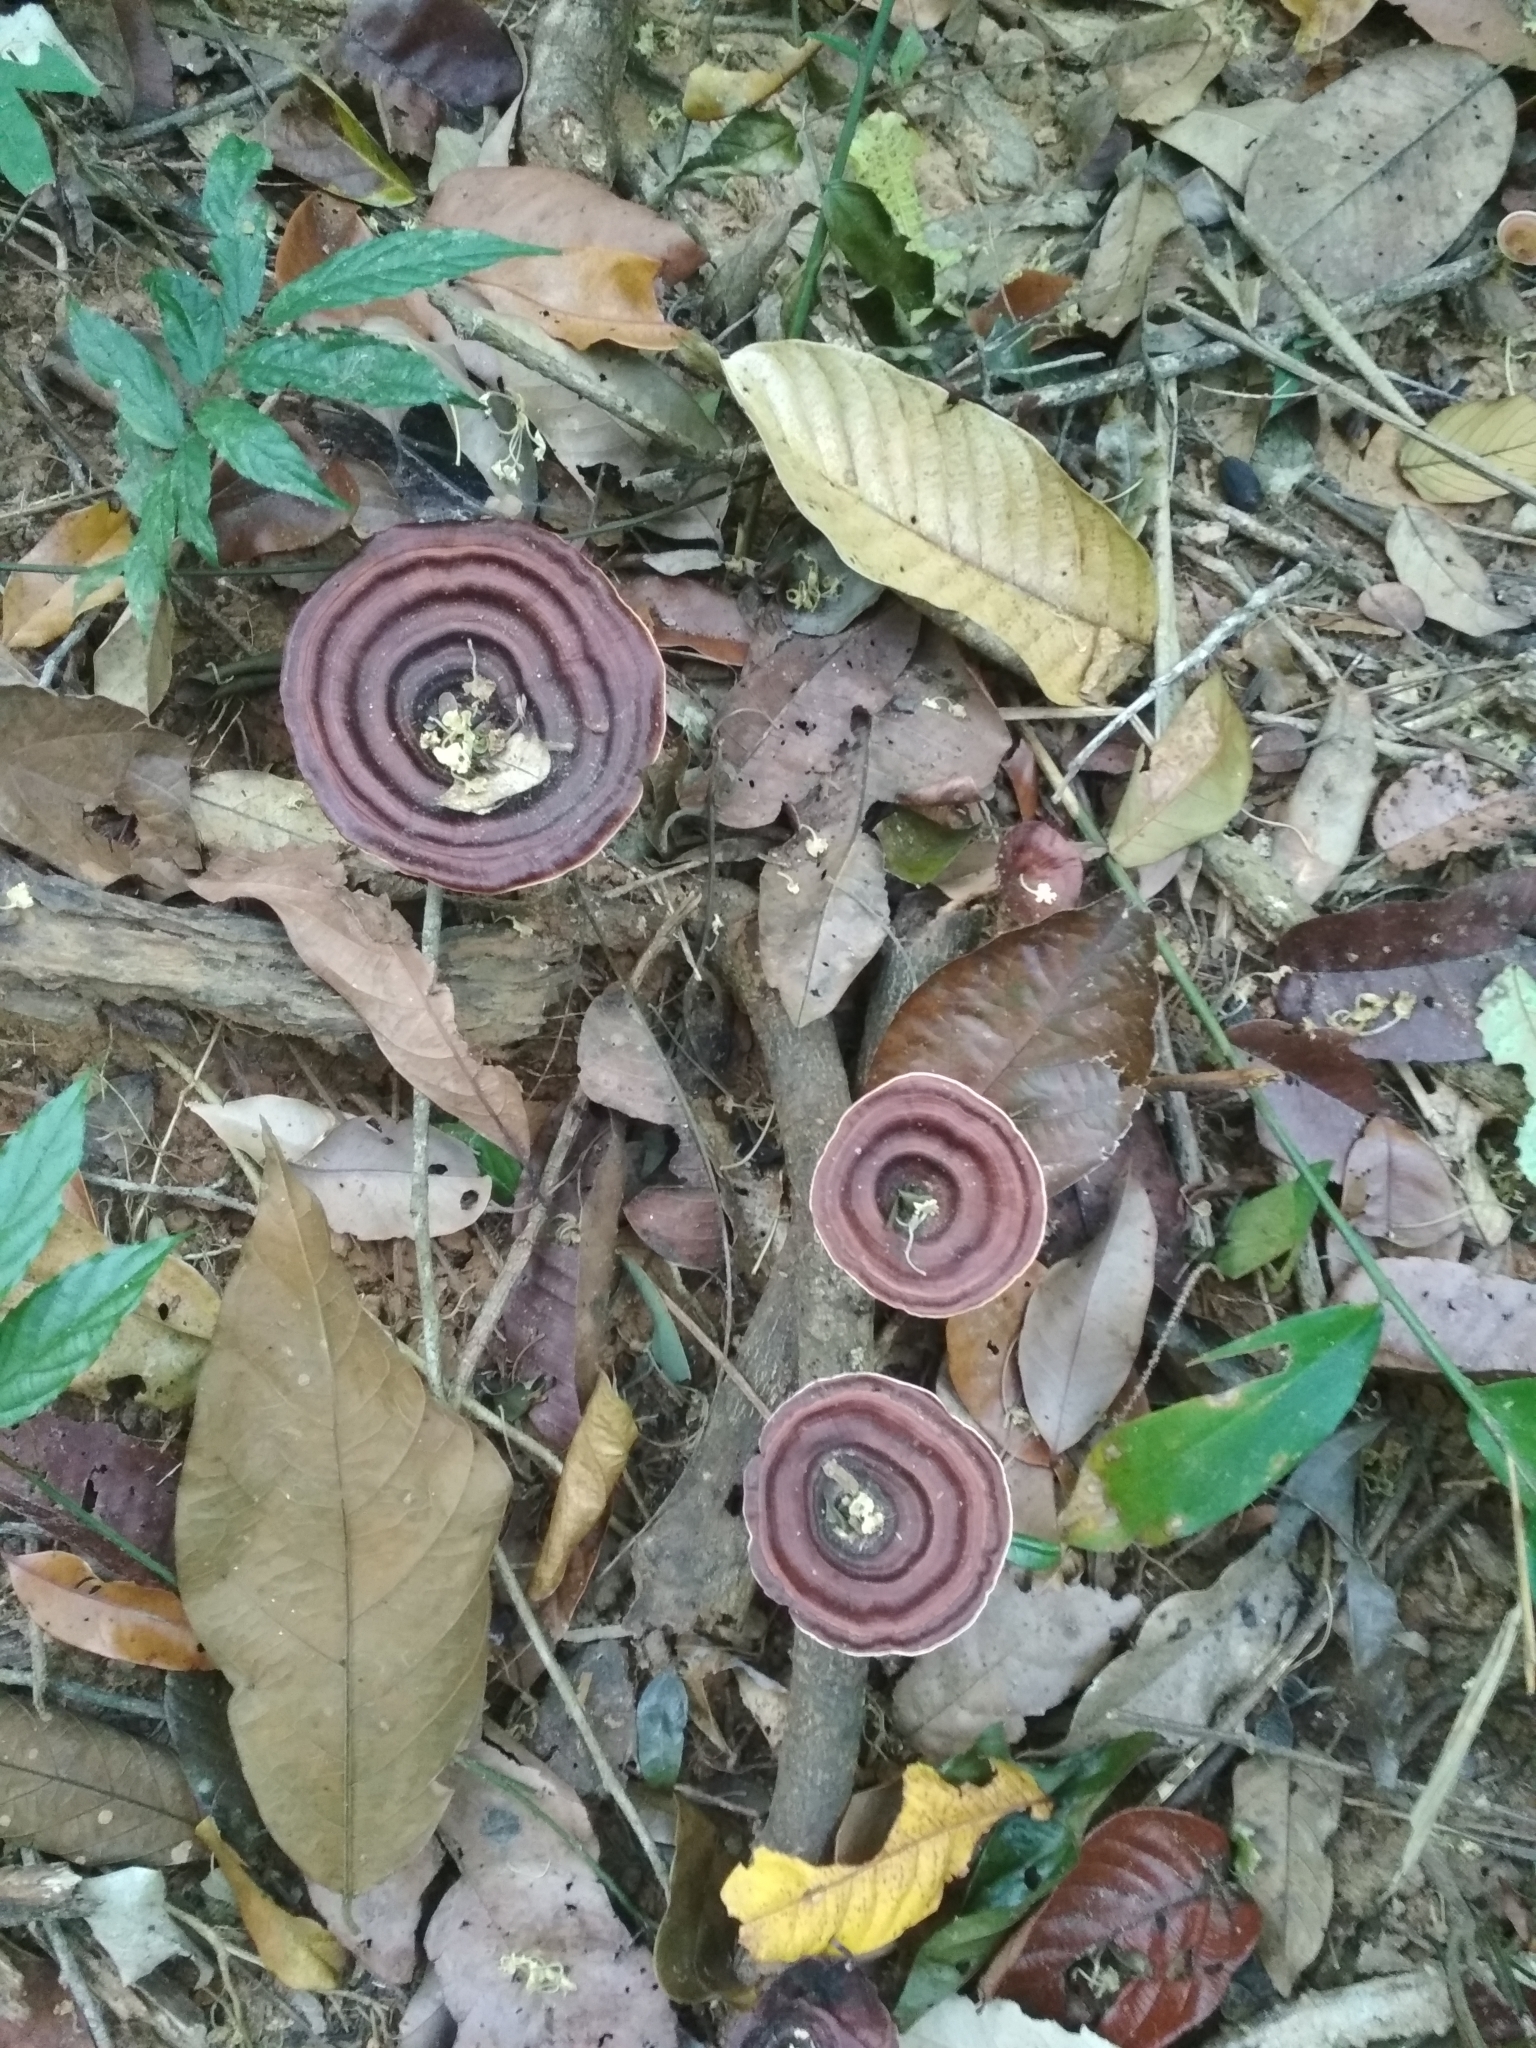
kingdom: Fungi
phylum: Basidiomycota
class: Agaricomycetes
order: Polyporales
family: Polyporaceae
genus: Microporus
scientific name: Microporus xanthopus
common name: Yellow-stemmed micropore
